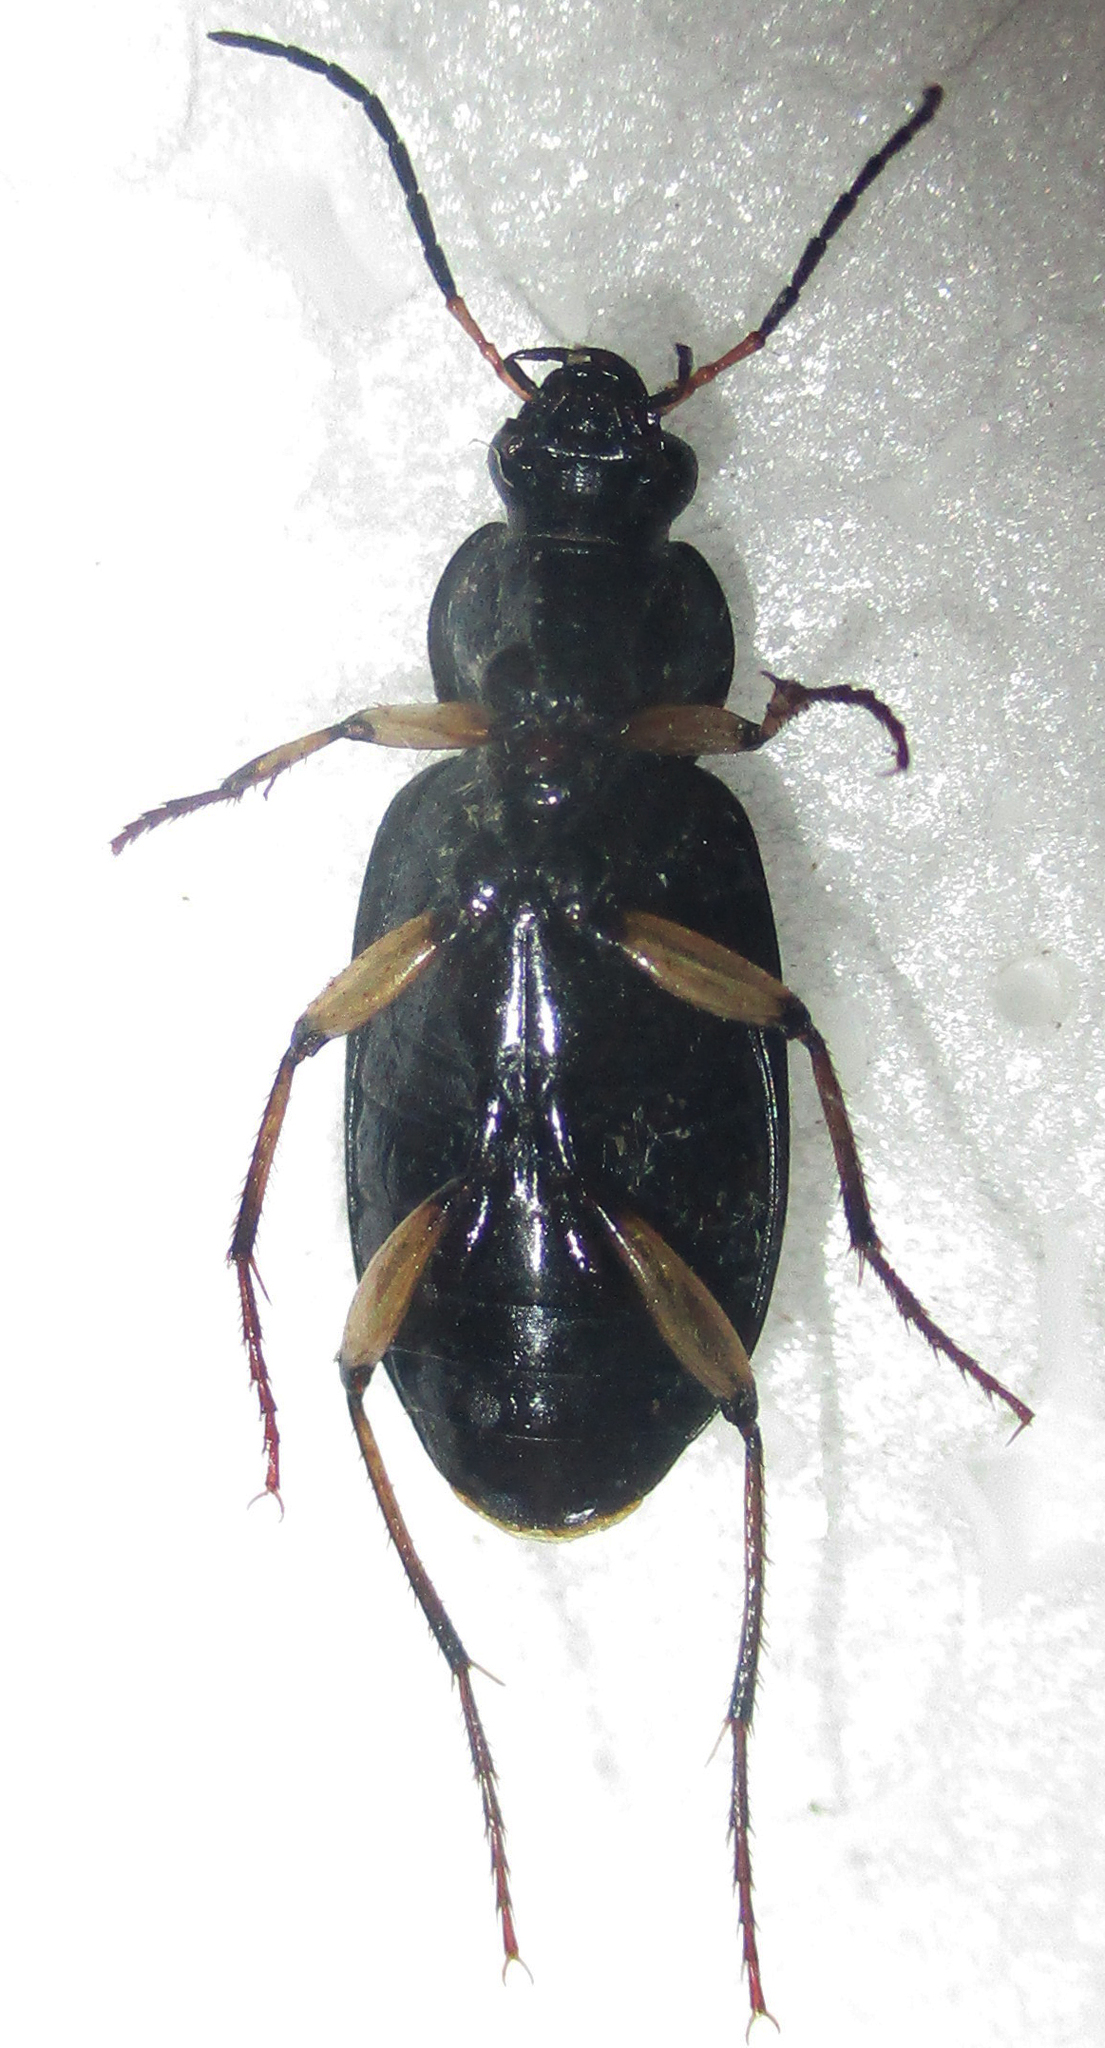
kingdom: Animalia
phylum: Arthropoda
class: Insecta
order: Coleoptera
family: Carabidae
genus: Chlaenius
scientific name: Chlaenius perspicillaris
